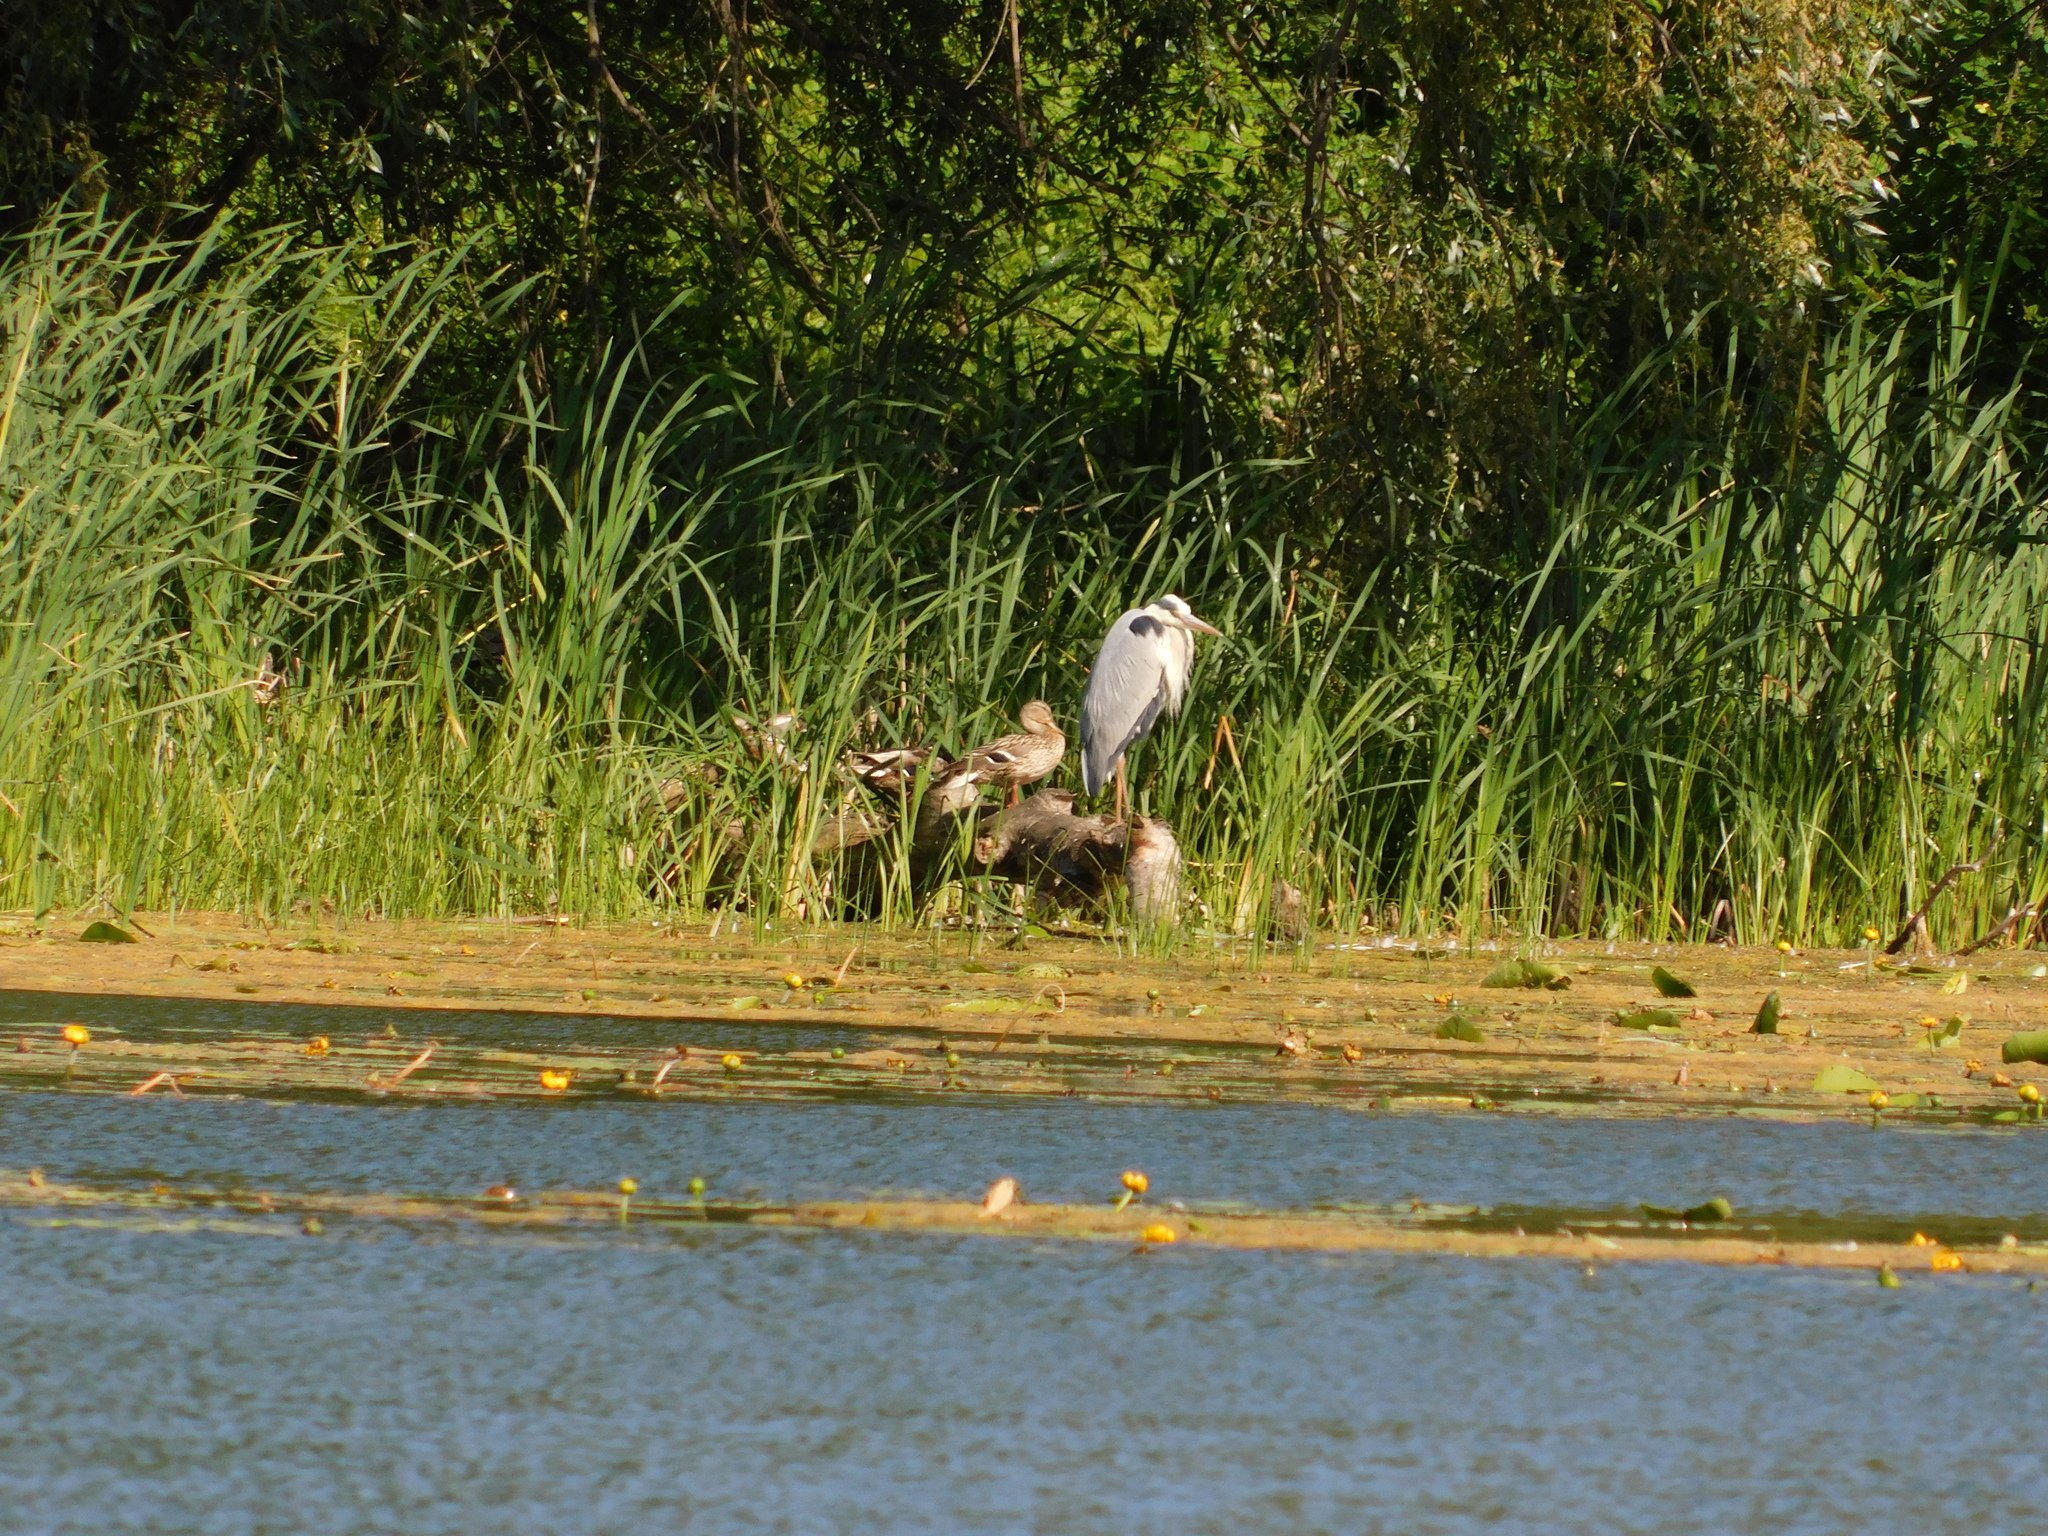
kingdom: Animalia
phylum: Chordata
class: Aves
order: Pelecaniformes
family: Ardeidae
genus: Ardea
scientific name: Ardea cinerea
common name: Grey heron
